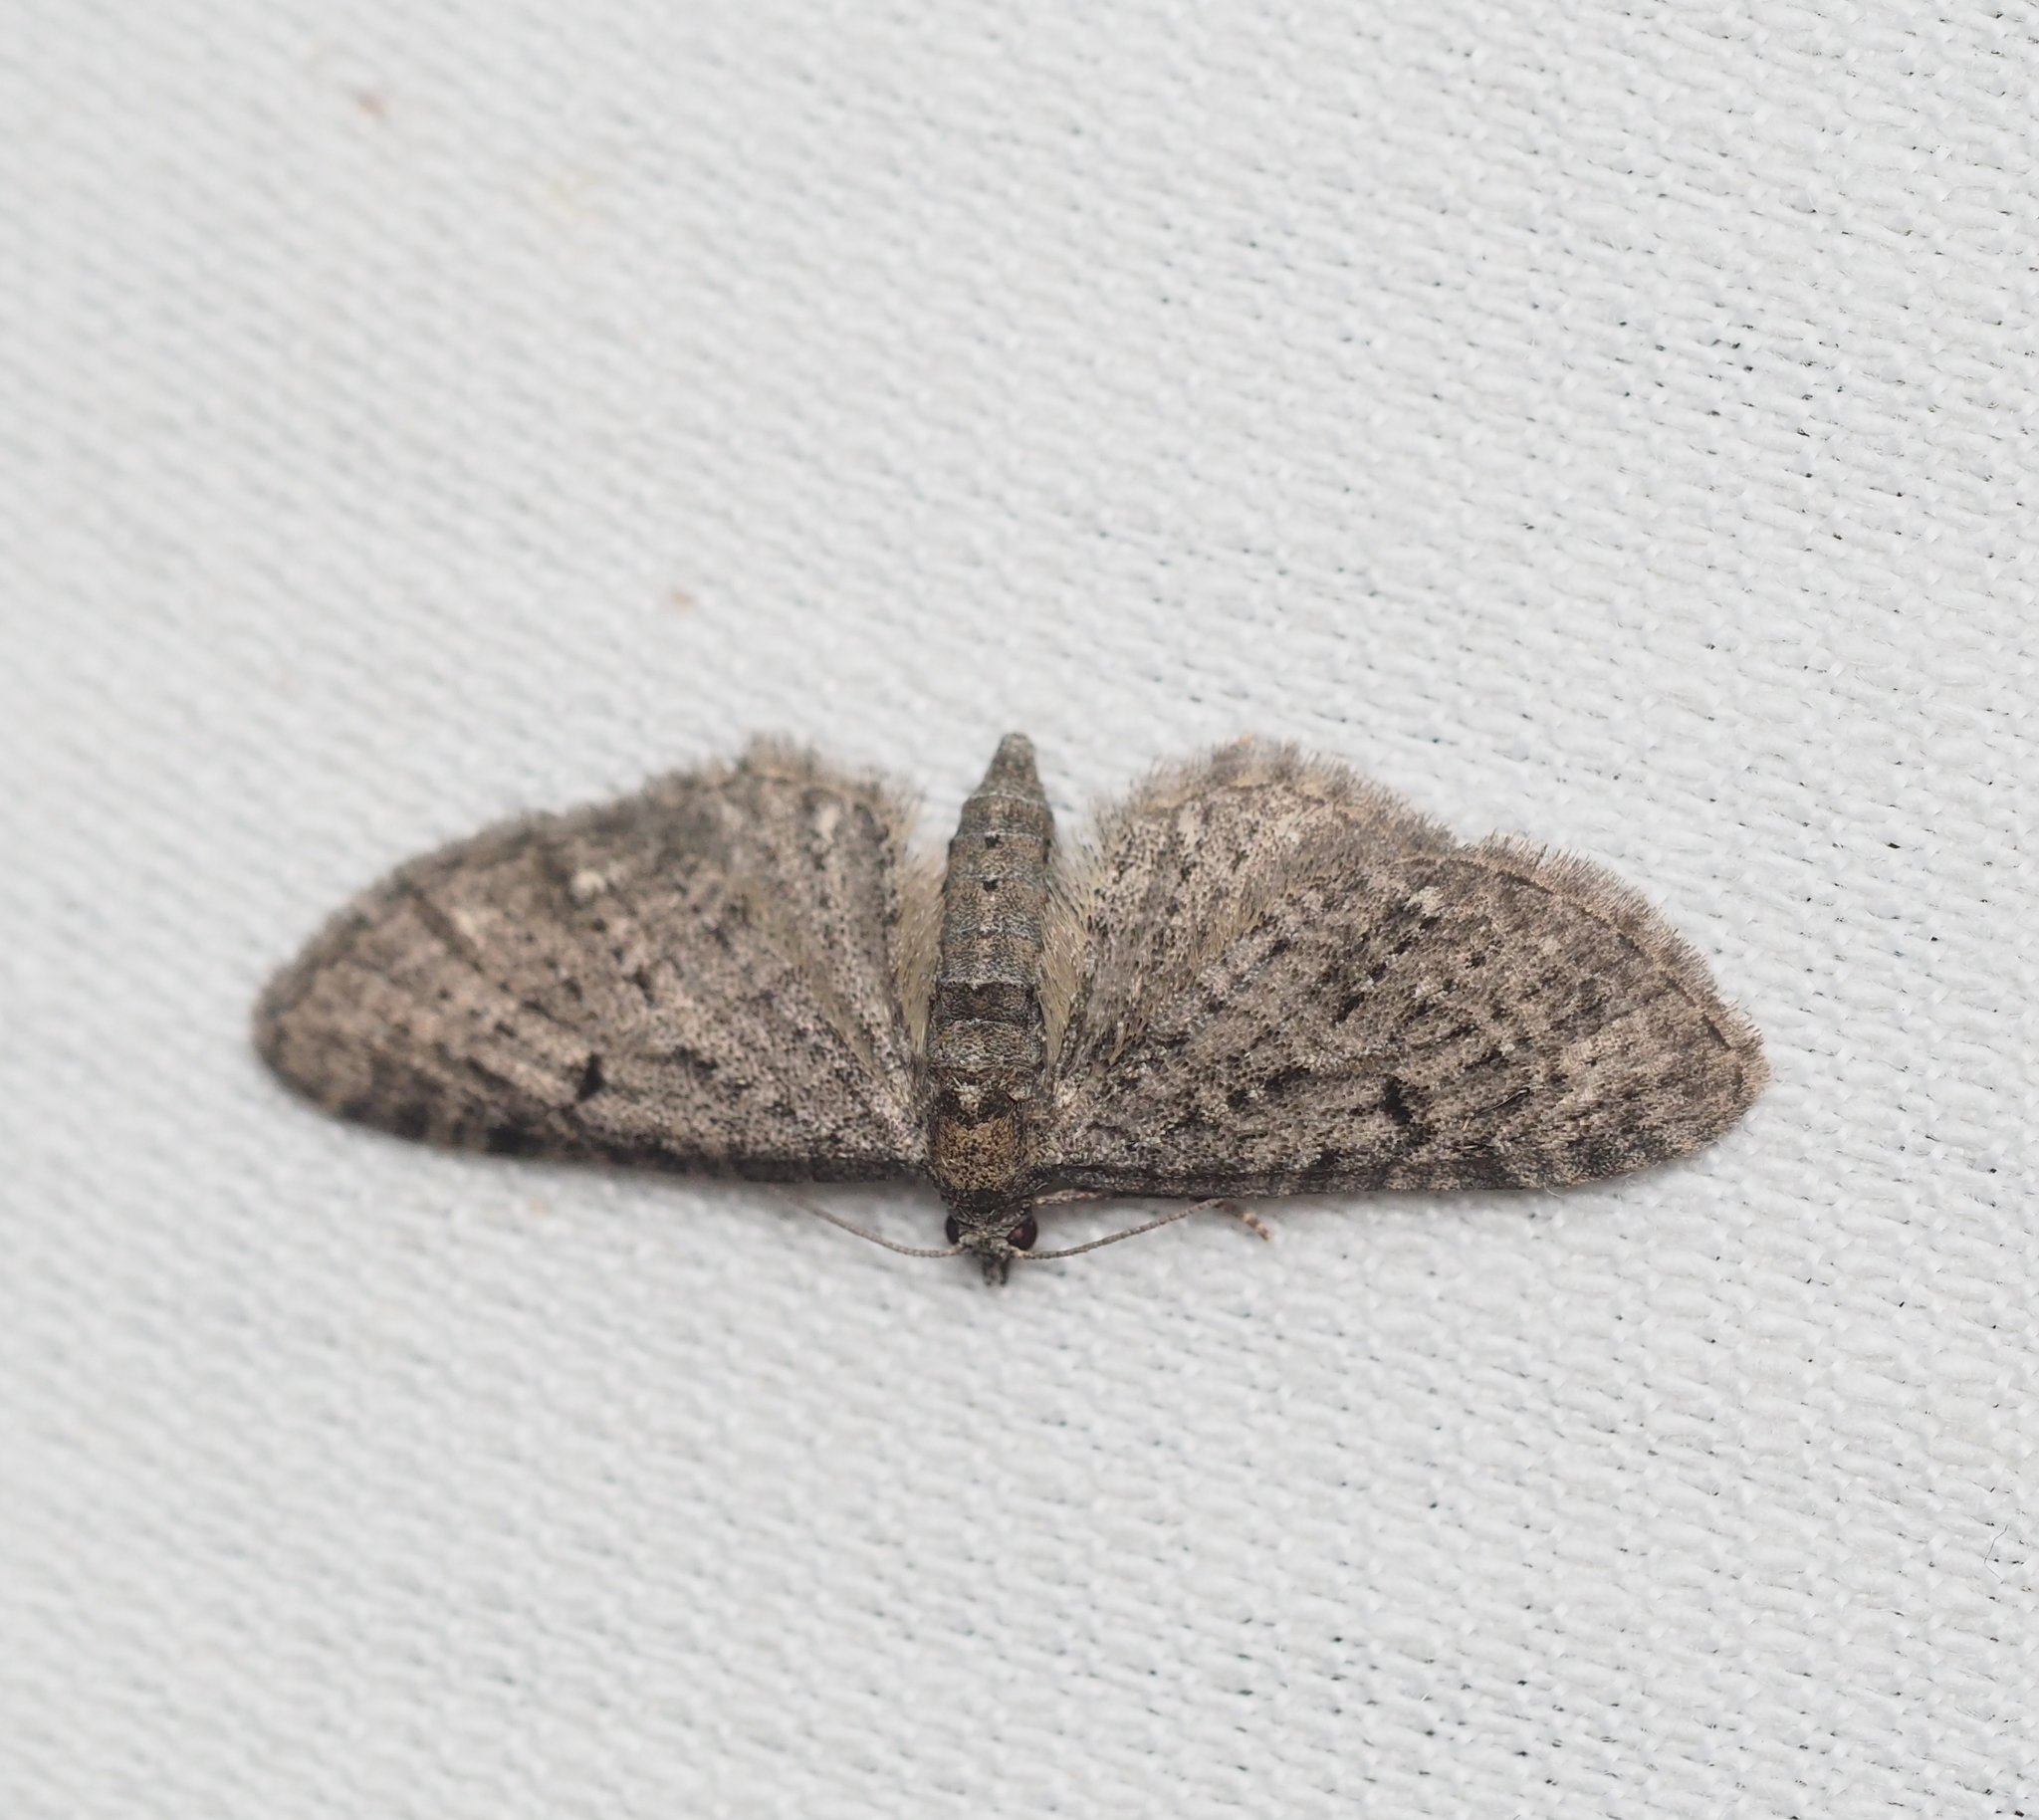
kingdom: Animalia
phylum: Arthropoda
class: Insecta
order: Lepidoptera
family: Geometridae
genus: Eupithecia
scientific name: Eupithecia virgaureata
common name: Golden-rod pug
